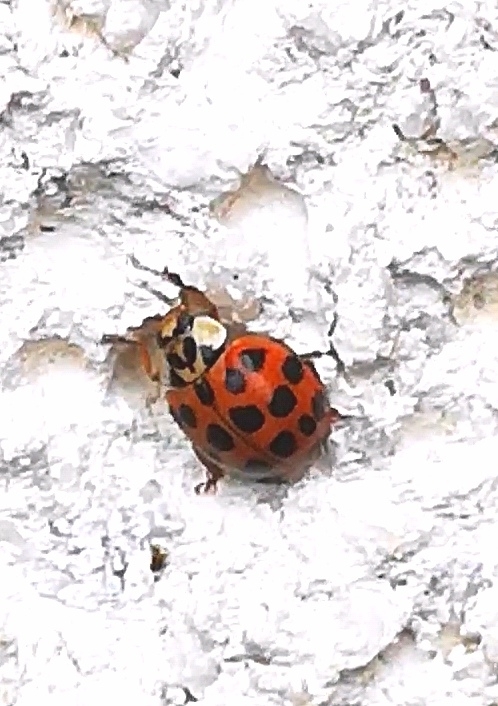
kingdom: Animalia
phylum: Arthropoda
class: Insecta
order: Coleoptera
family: Coccinellidae
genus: Harmonia
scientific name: Harmonia axyridis
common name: Harlequin ladybird
